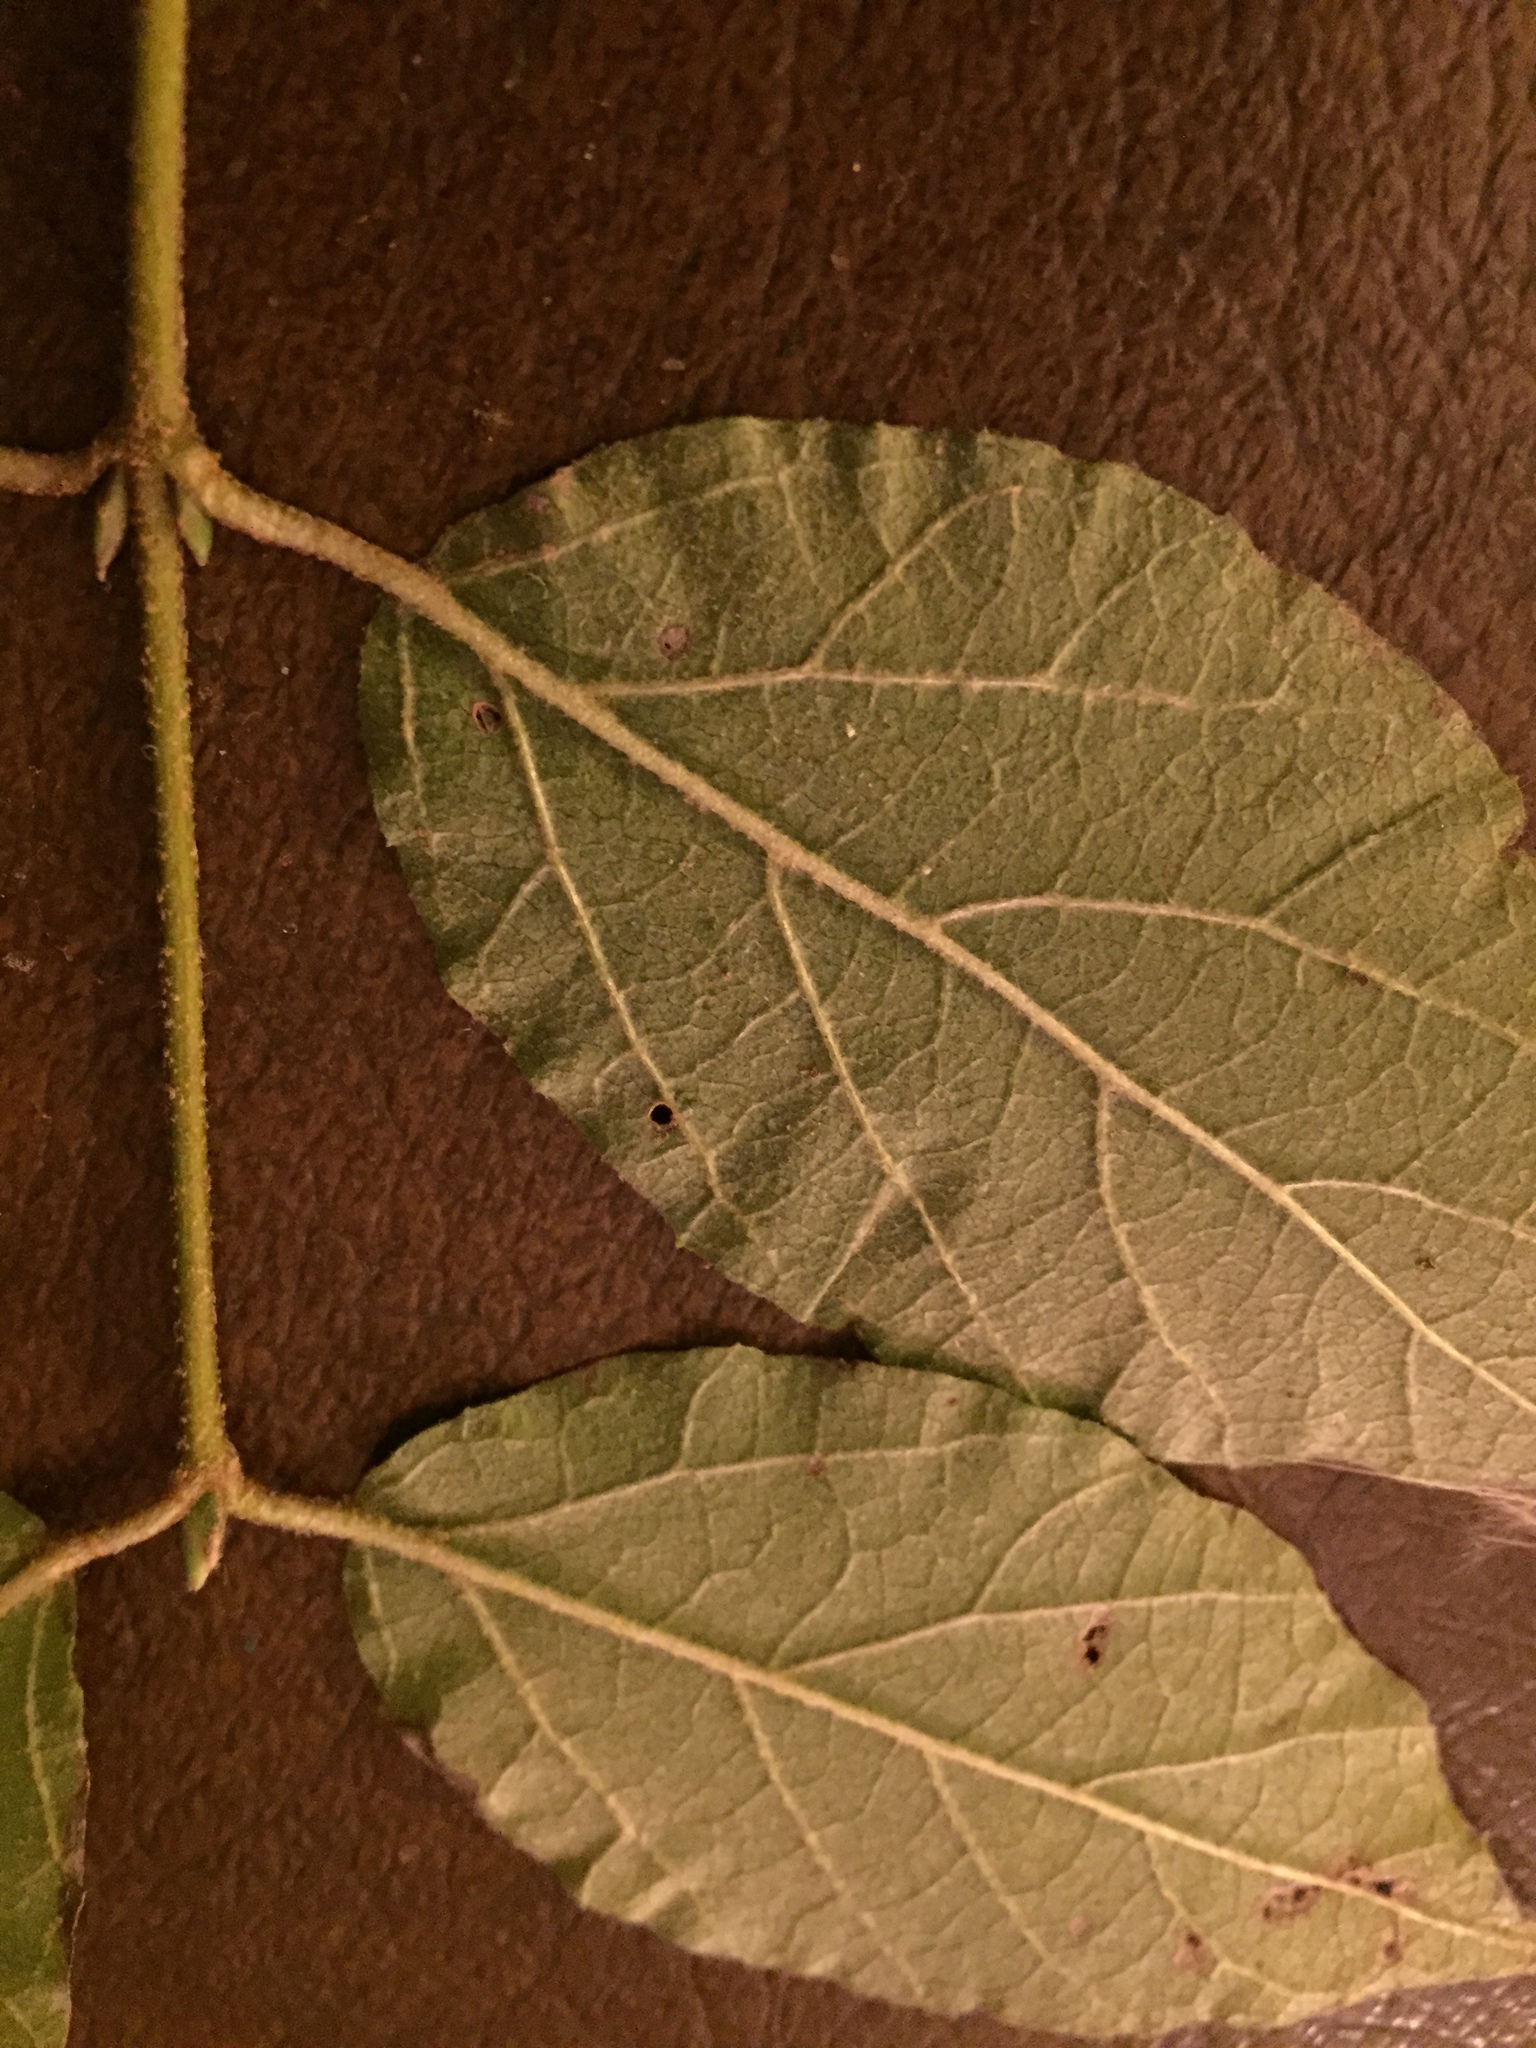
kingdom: Plantae
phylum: Tracheophyta
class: Magnoliopsida
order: Dipsacales
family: Viburnaceae
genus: Viburnum
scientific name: Viburnum scabrellum
